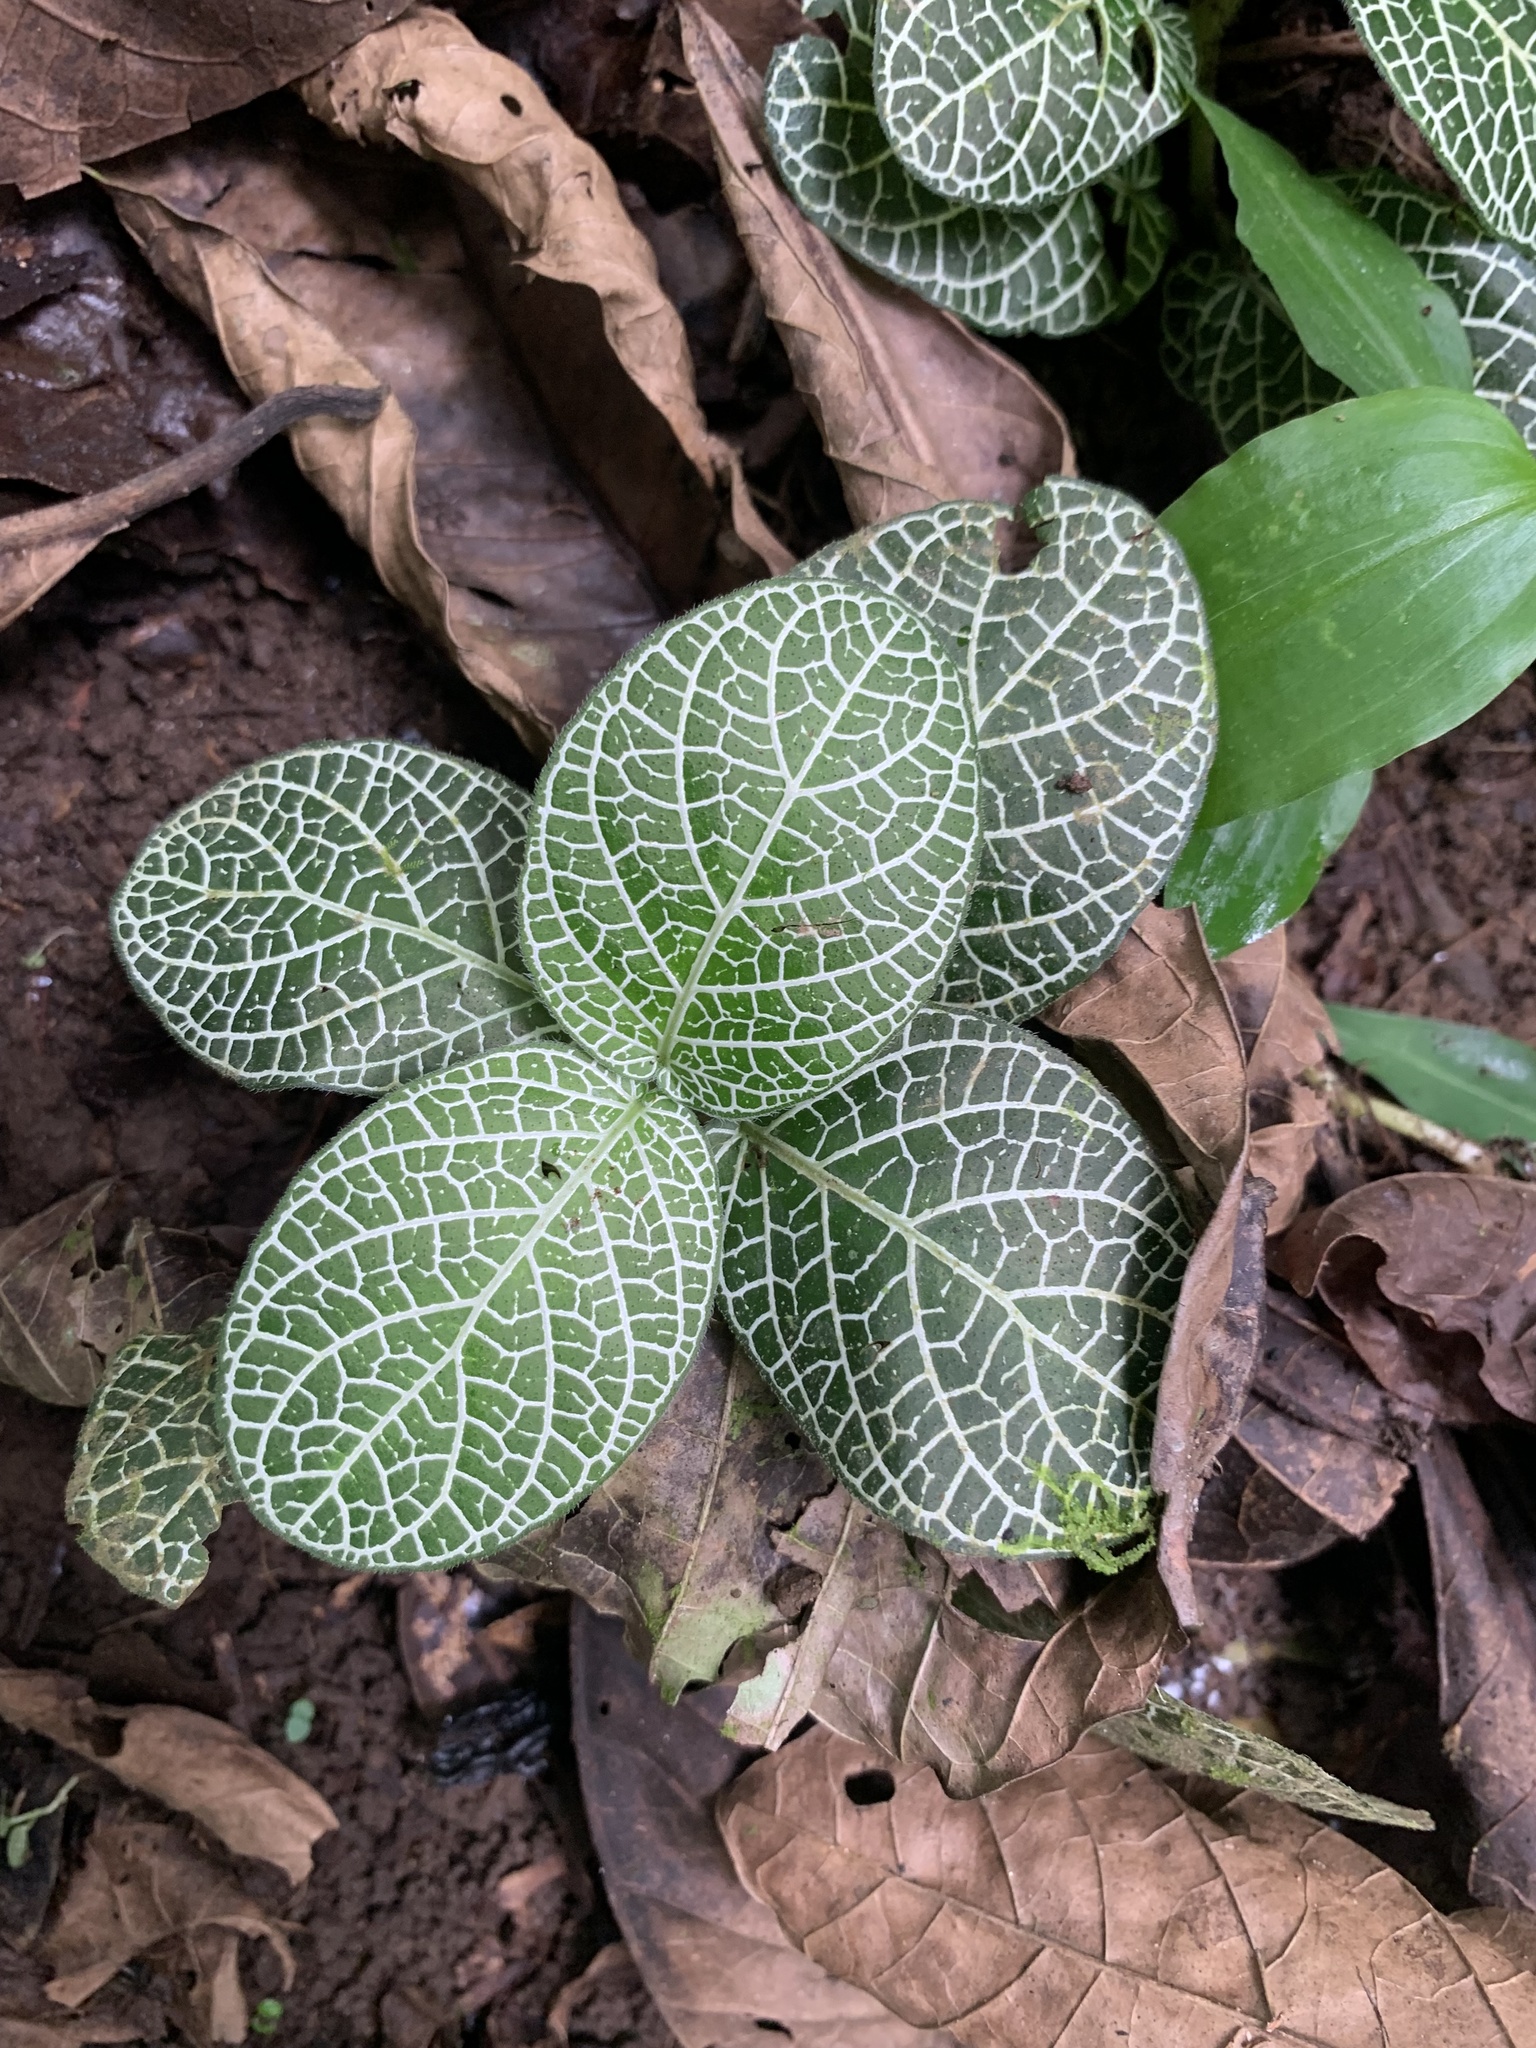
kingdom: Plantae
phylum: Tracheophyta
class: Magnoliopsida
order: Lamiales
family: Acanthaceae
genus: Fittonia
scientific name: Fittonia albivenis
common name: Mosaic-plant
